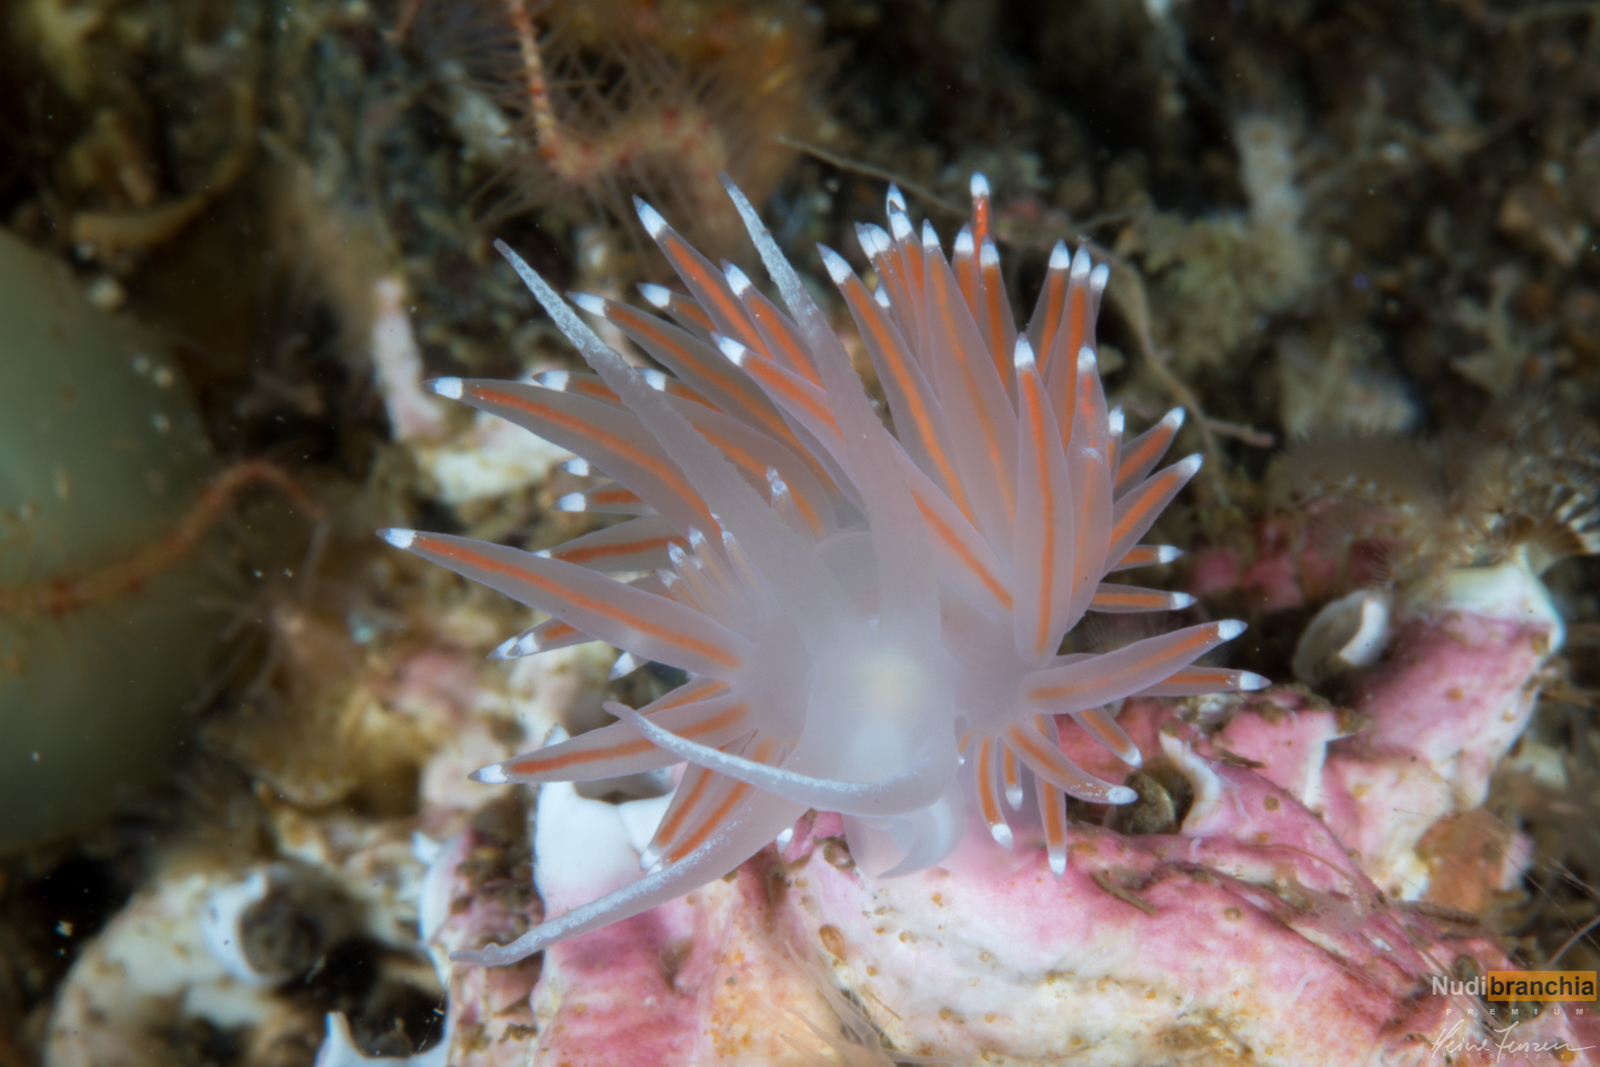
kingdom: Animalia
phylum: Mollusca
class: Gastropoda
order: Nudibranchia
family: Coryphellidae
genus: Coryphella
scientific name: Coryphella browni
